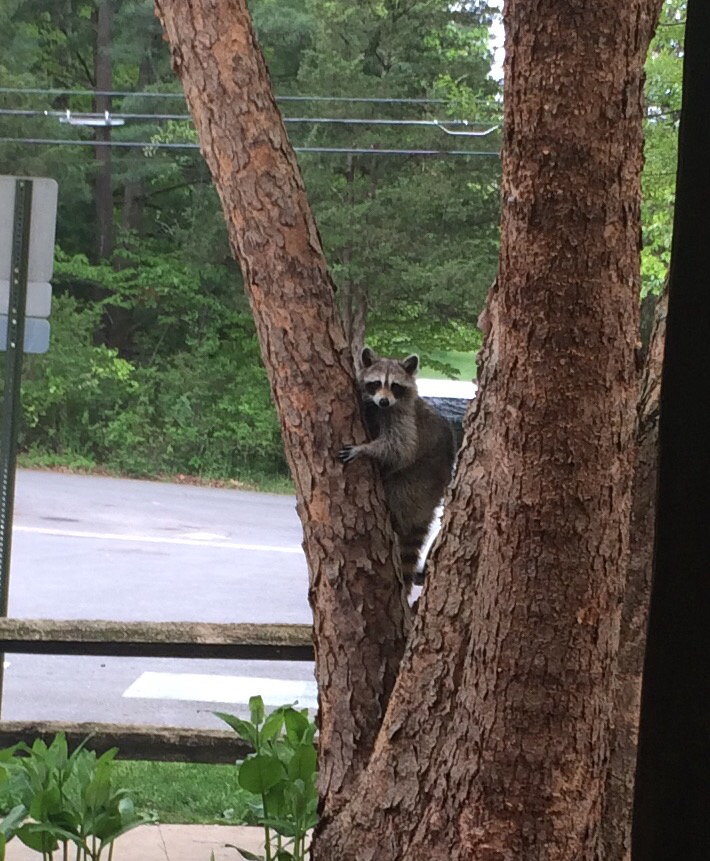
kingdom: Animalia
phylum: Chordata
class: Mammalia
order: Carnivora
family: Procyonidae
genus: Procyon
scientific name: Procyon lotor
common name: Raccoon
